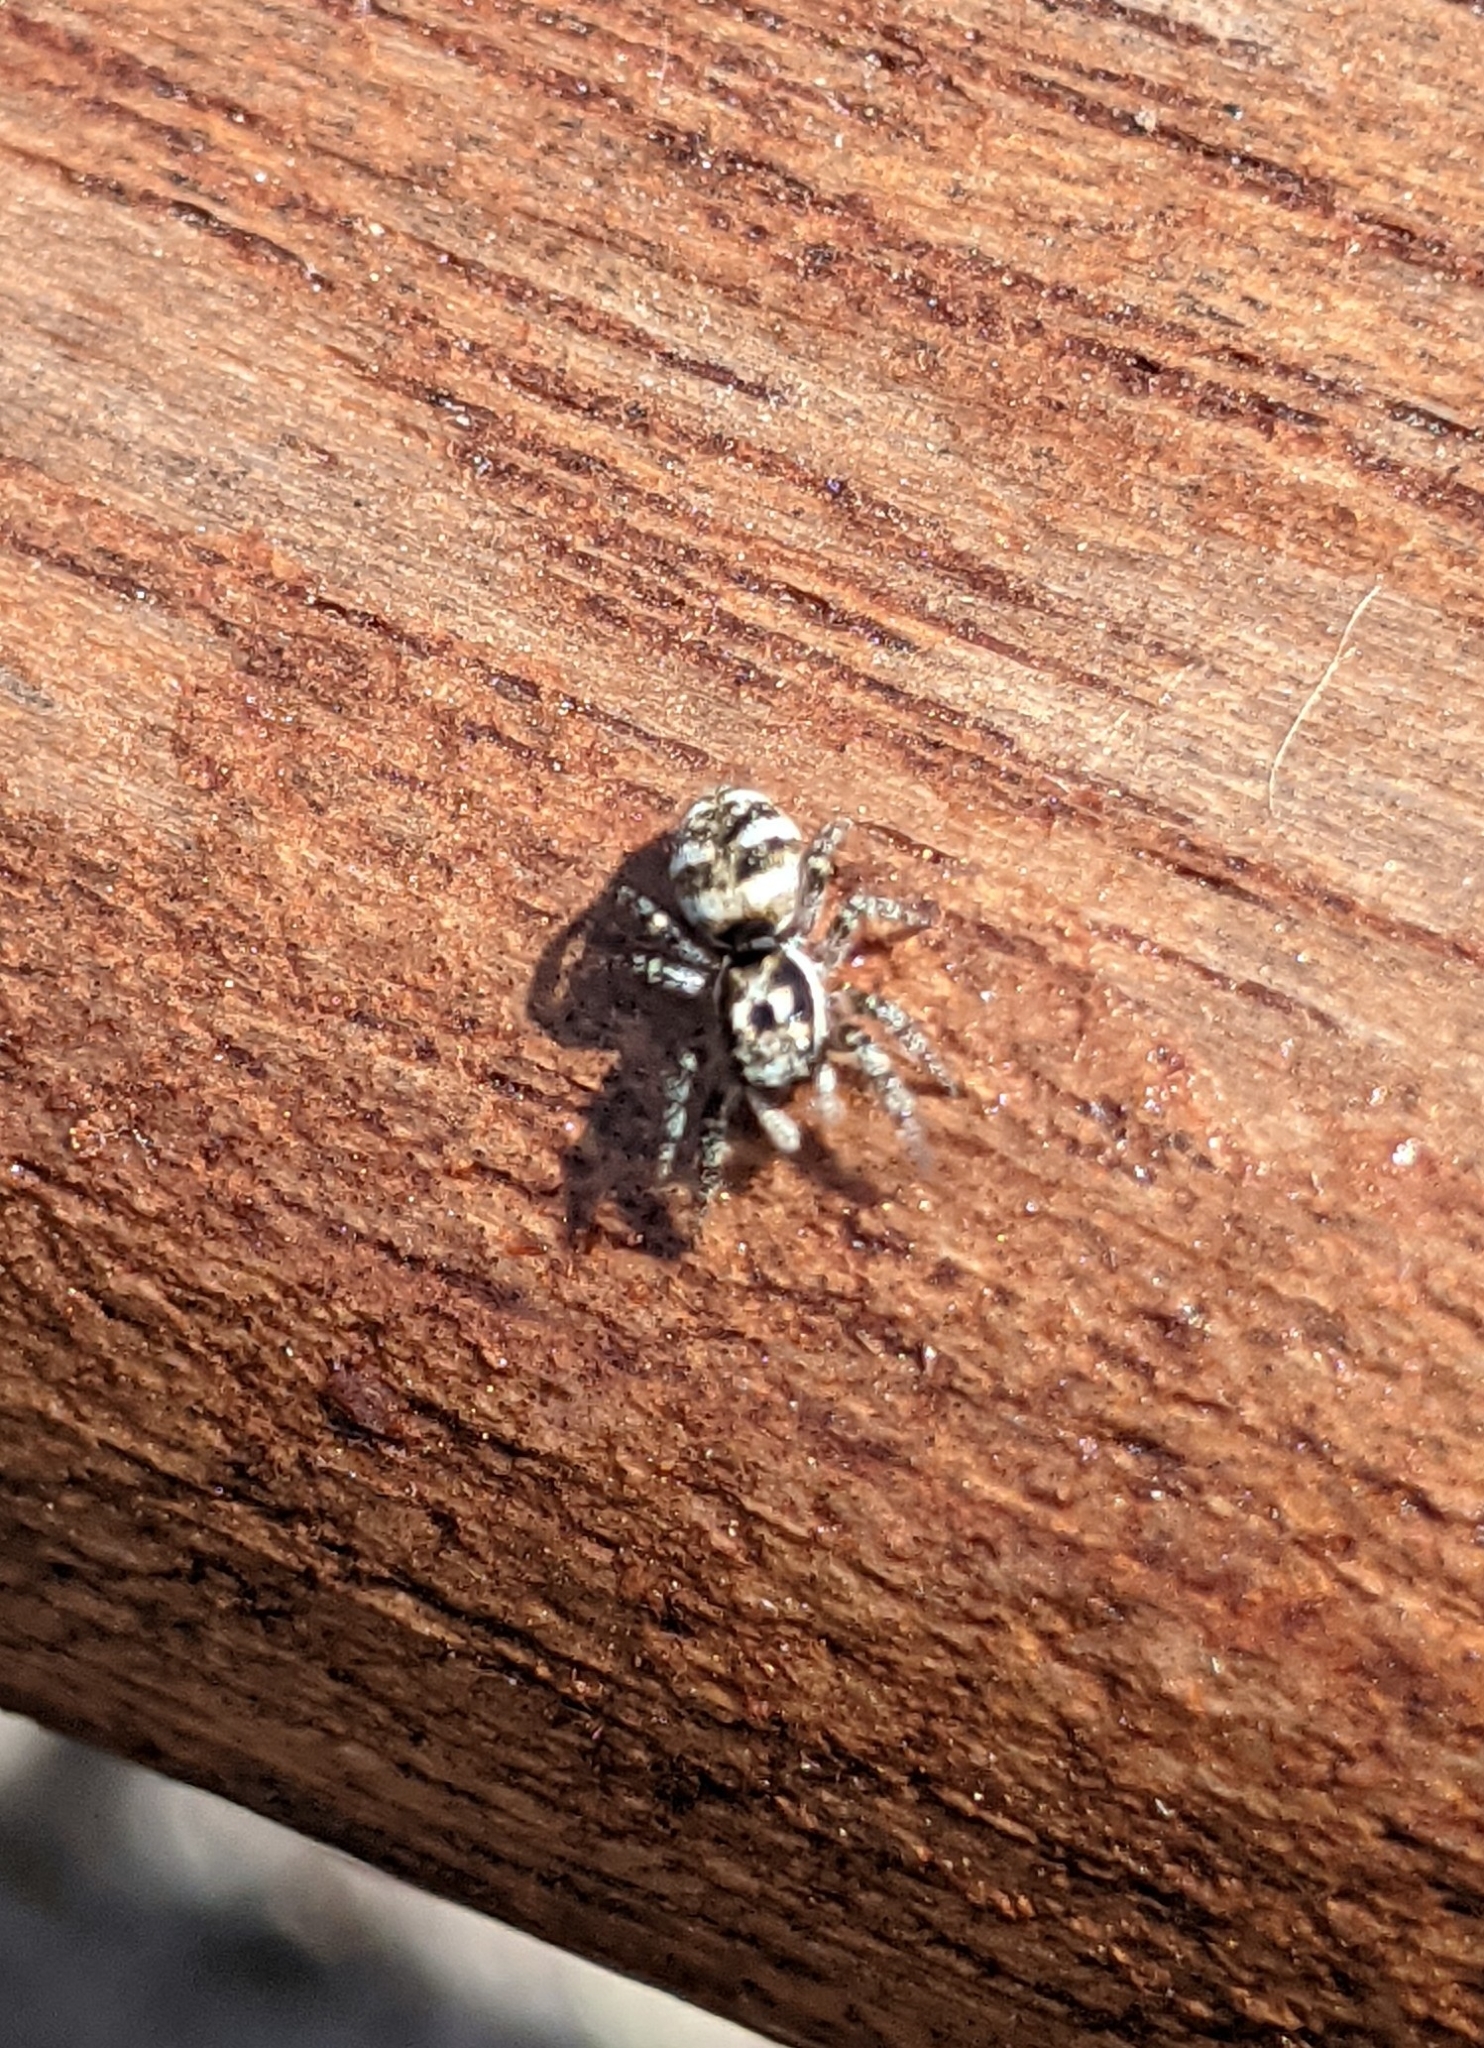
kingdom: Animalia
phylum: Arthropoda
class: Arachnida
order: Araneae
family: Salticidae
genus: Salticus
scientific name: Salticus scenicus
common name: Zebra jumper
